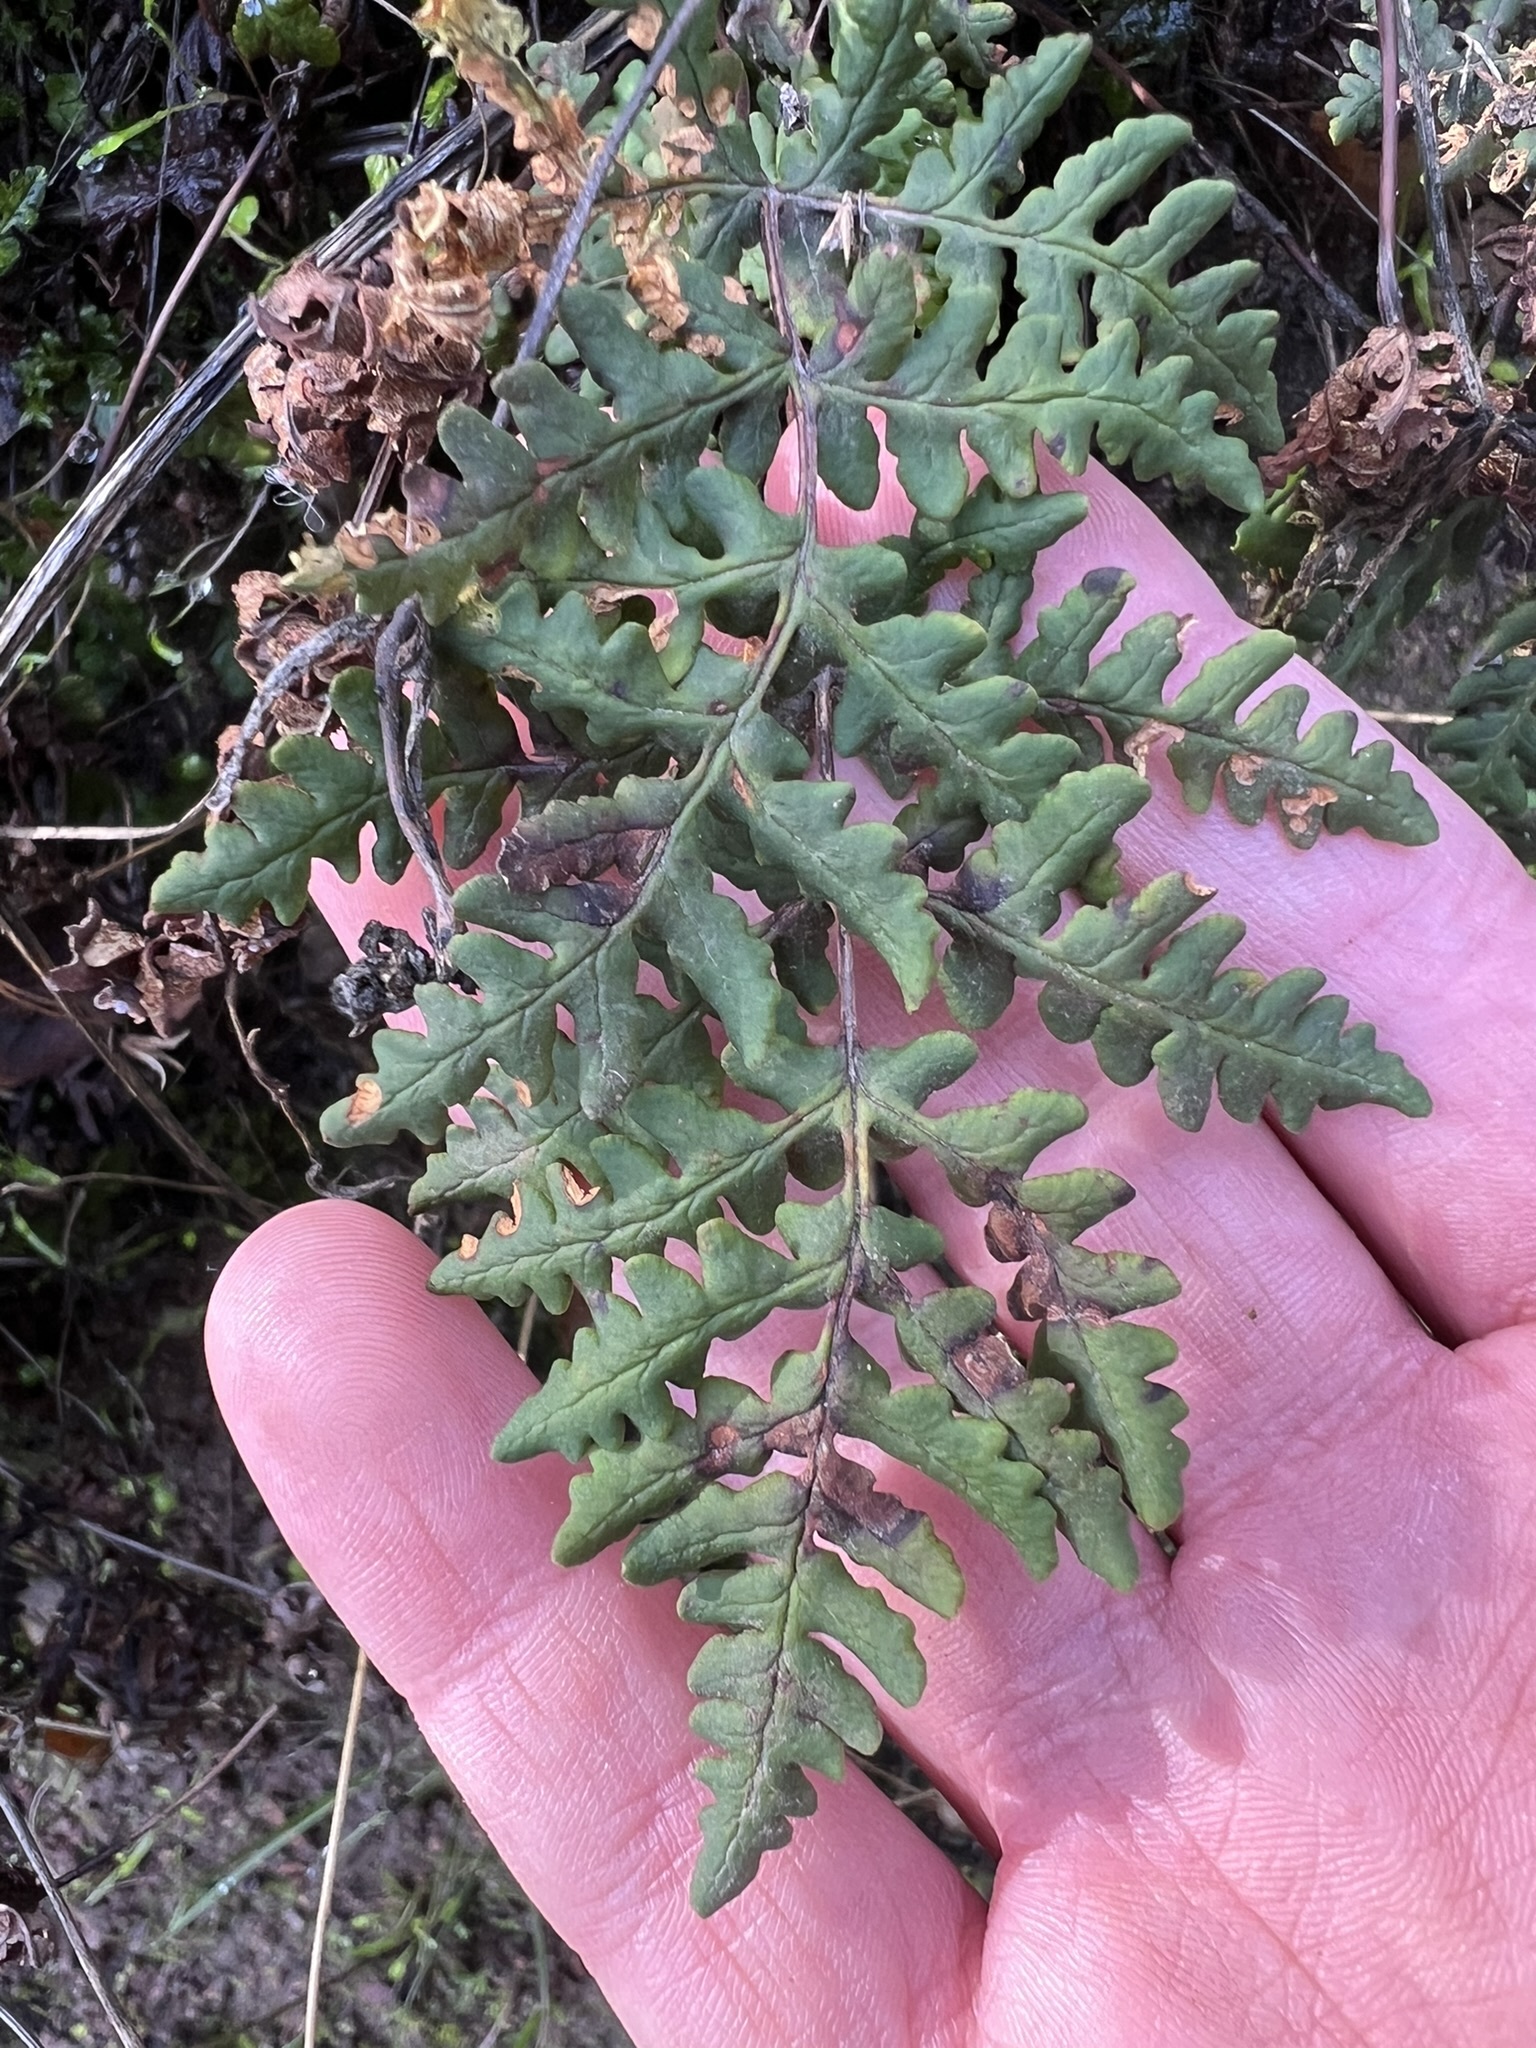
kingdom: Plantae
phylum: Tracheophyta
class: Polypodiopsida
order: Polypodiales
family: Pteridaceae
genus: Pentagramma
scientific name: Pentagramma triangularis
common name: Gold fern
